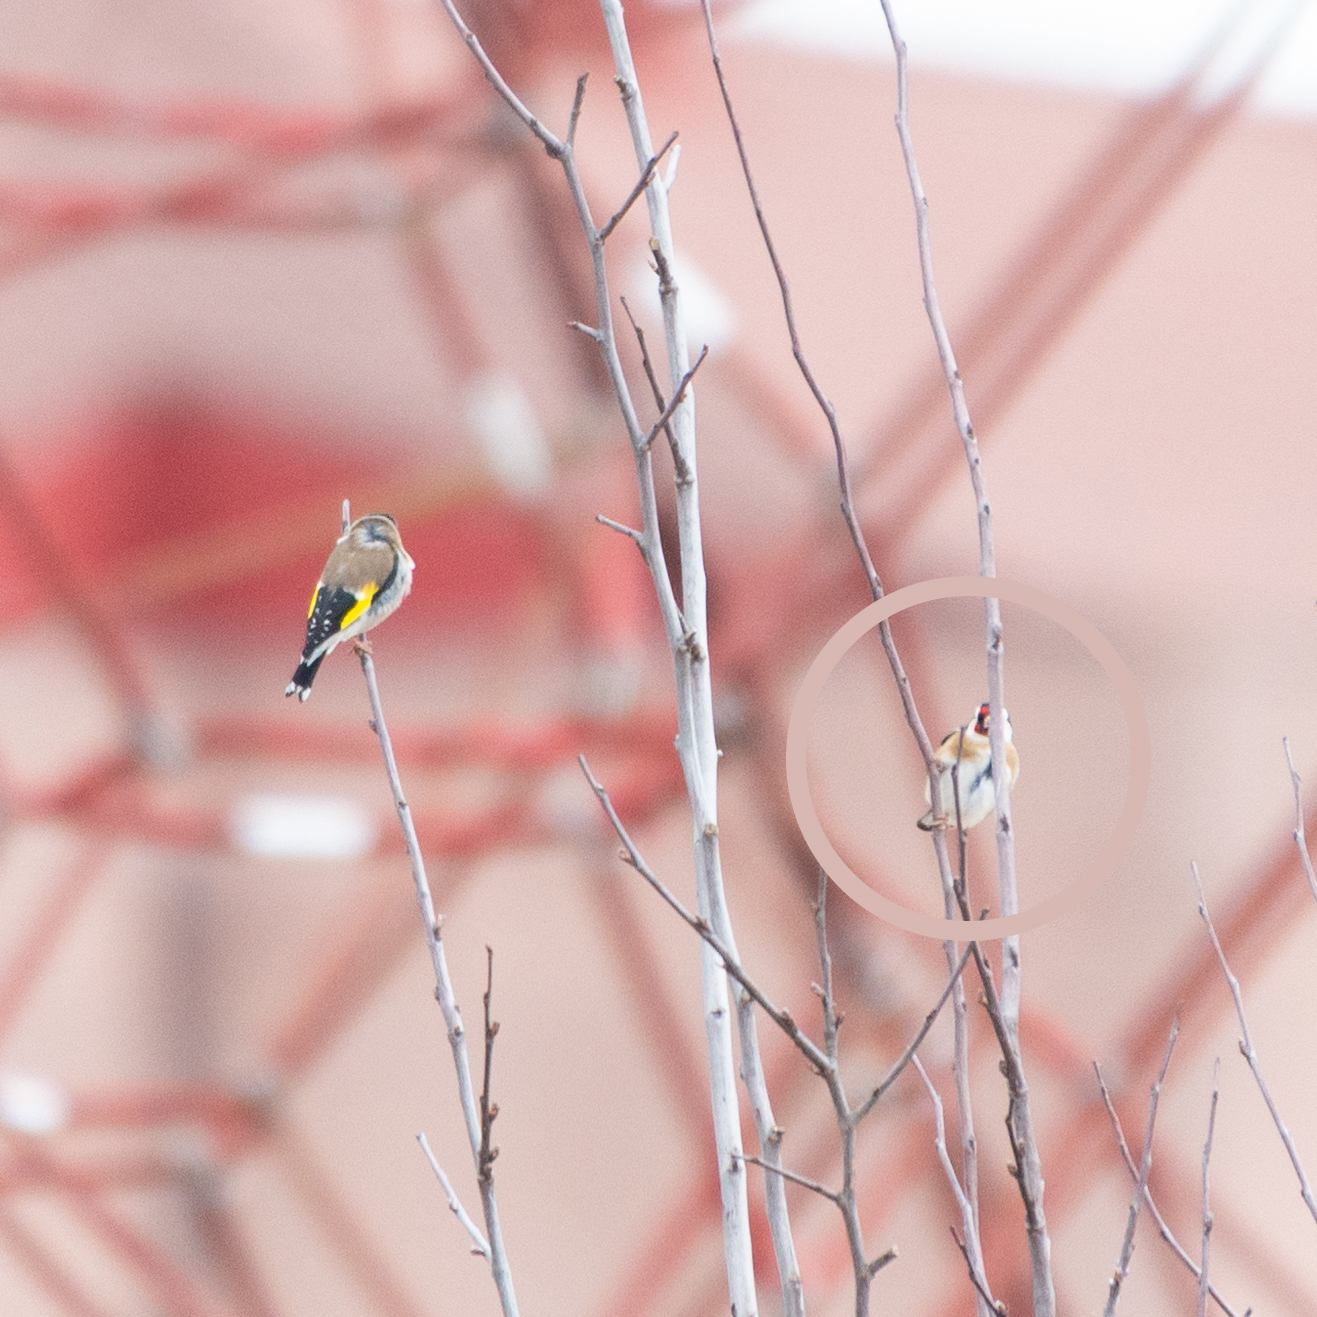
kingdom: Animalia
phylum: Chordata
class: Aves
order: Passeriformes
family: Fringillidae
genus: Carduelis
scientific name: Carduelis carduelis
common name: European goldfinch
